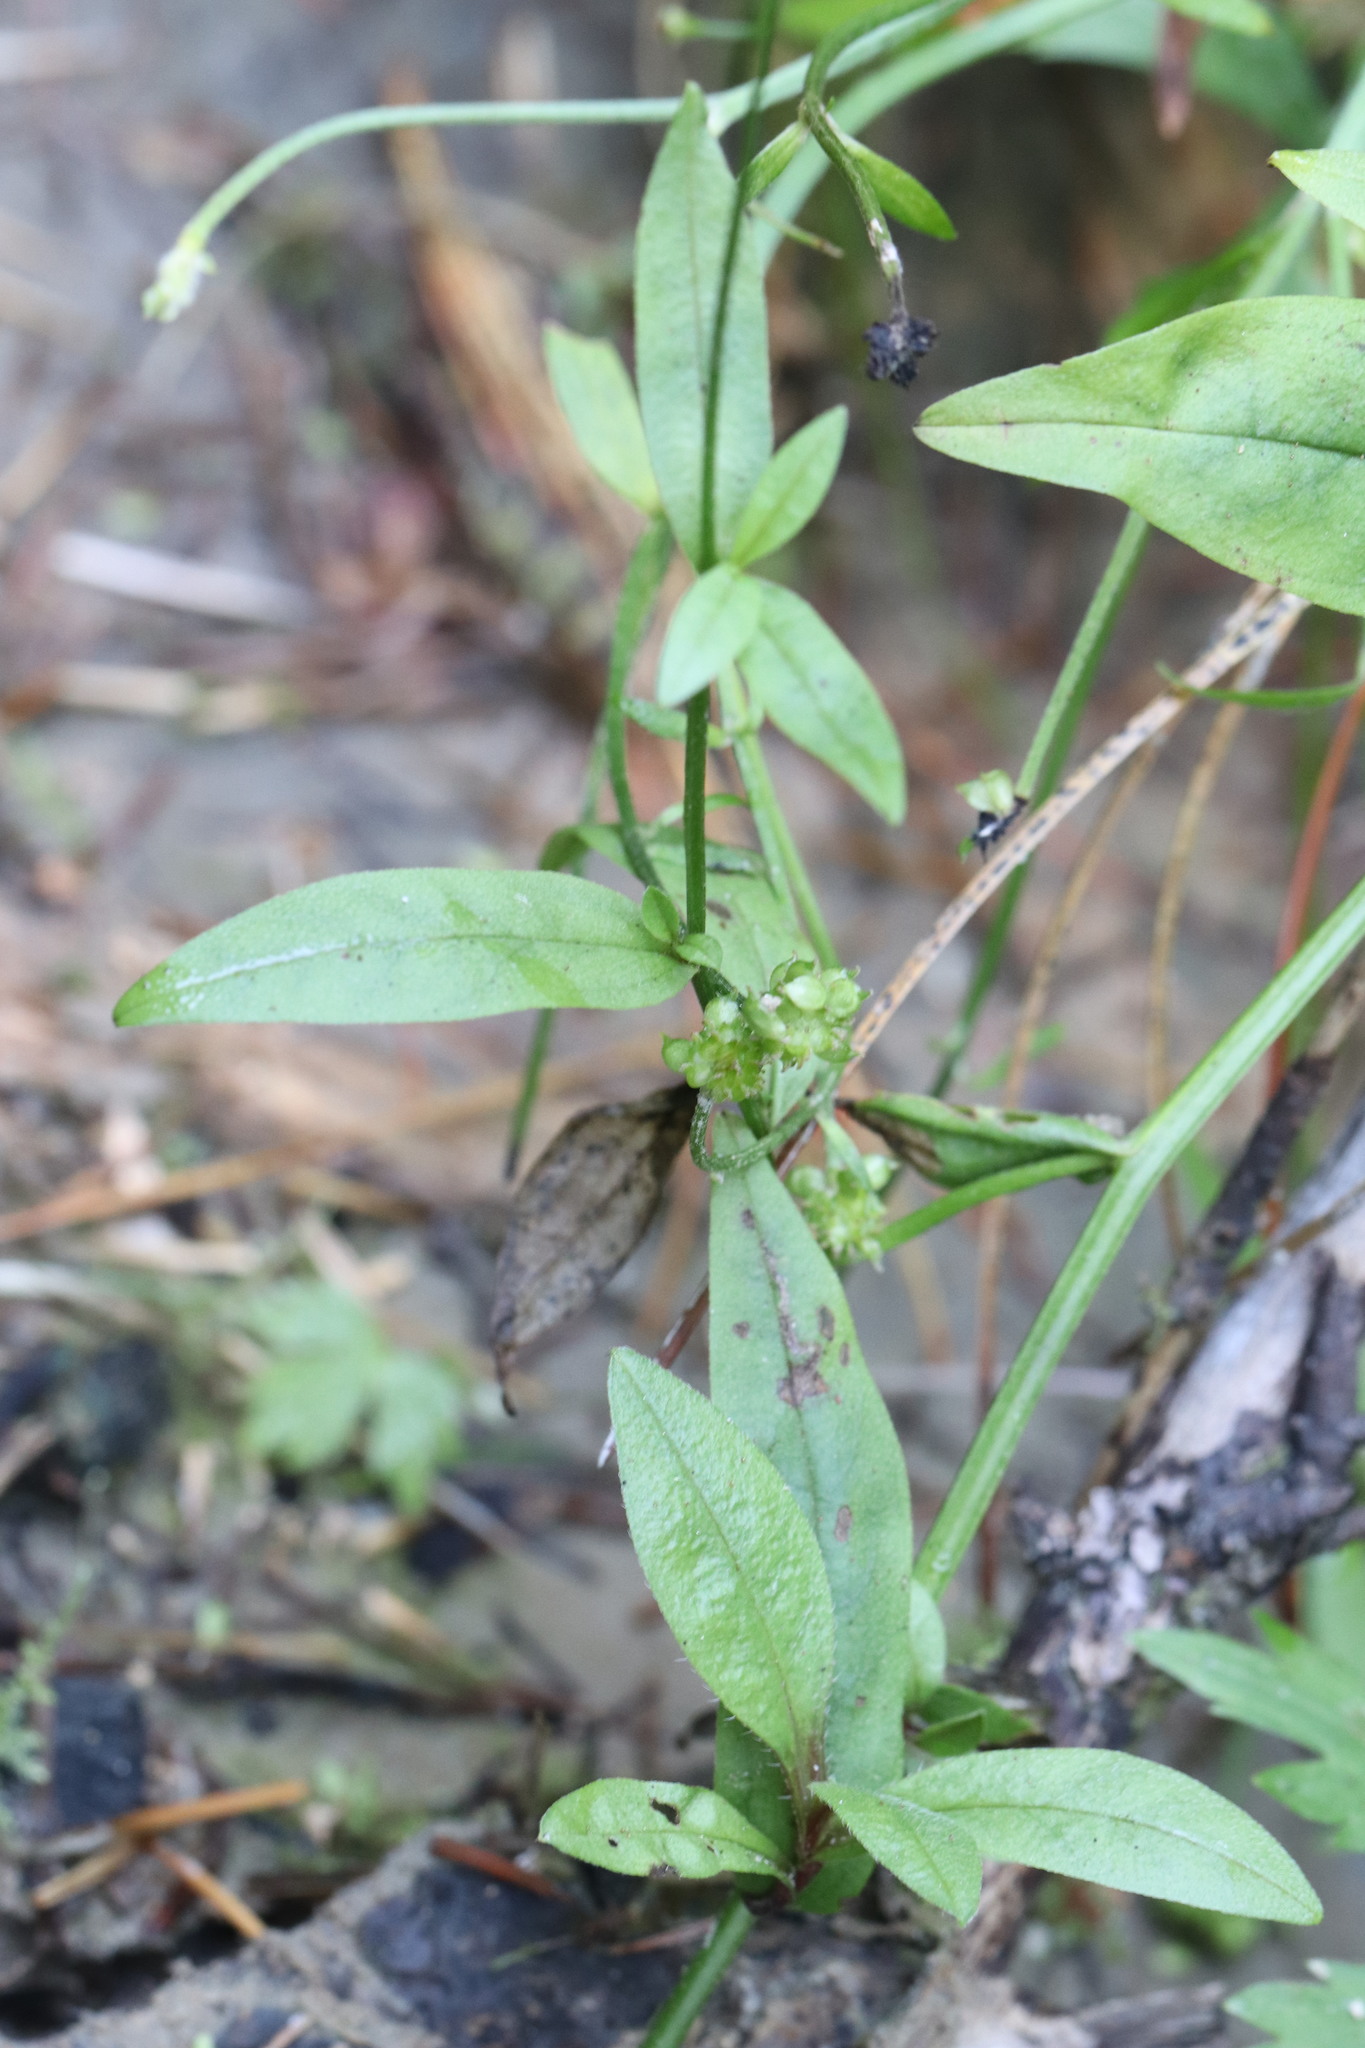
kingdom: Plantae
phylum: Tracheophyta
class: Magnoliopsida
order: Boraginales
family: Boraginaceae
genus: Myosotis
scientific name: Myosotis scorpioides
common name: Water forget-me-not
